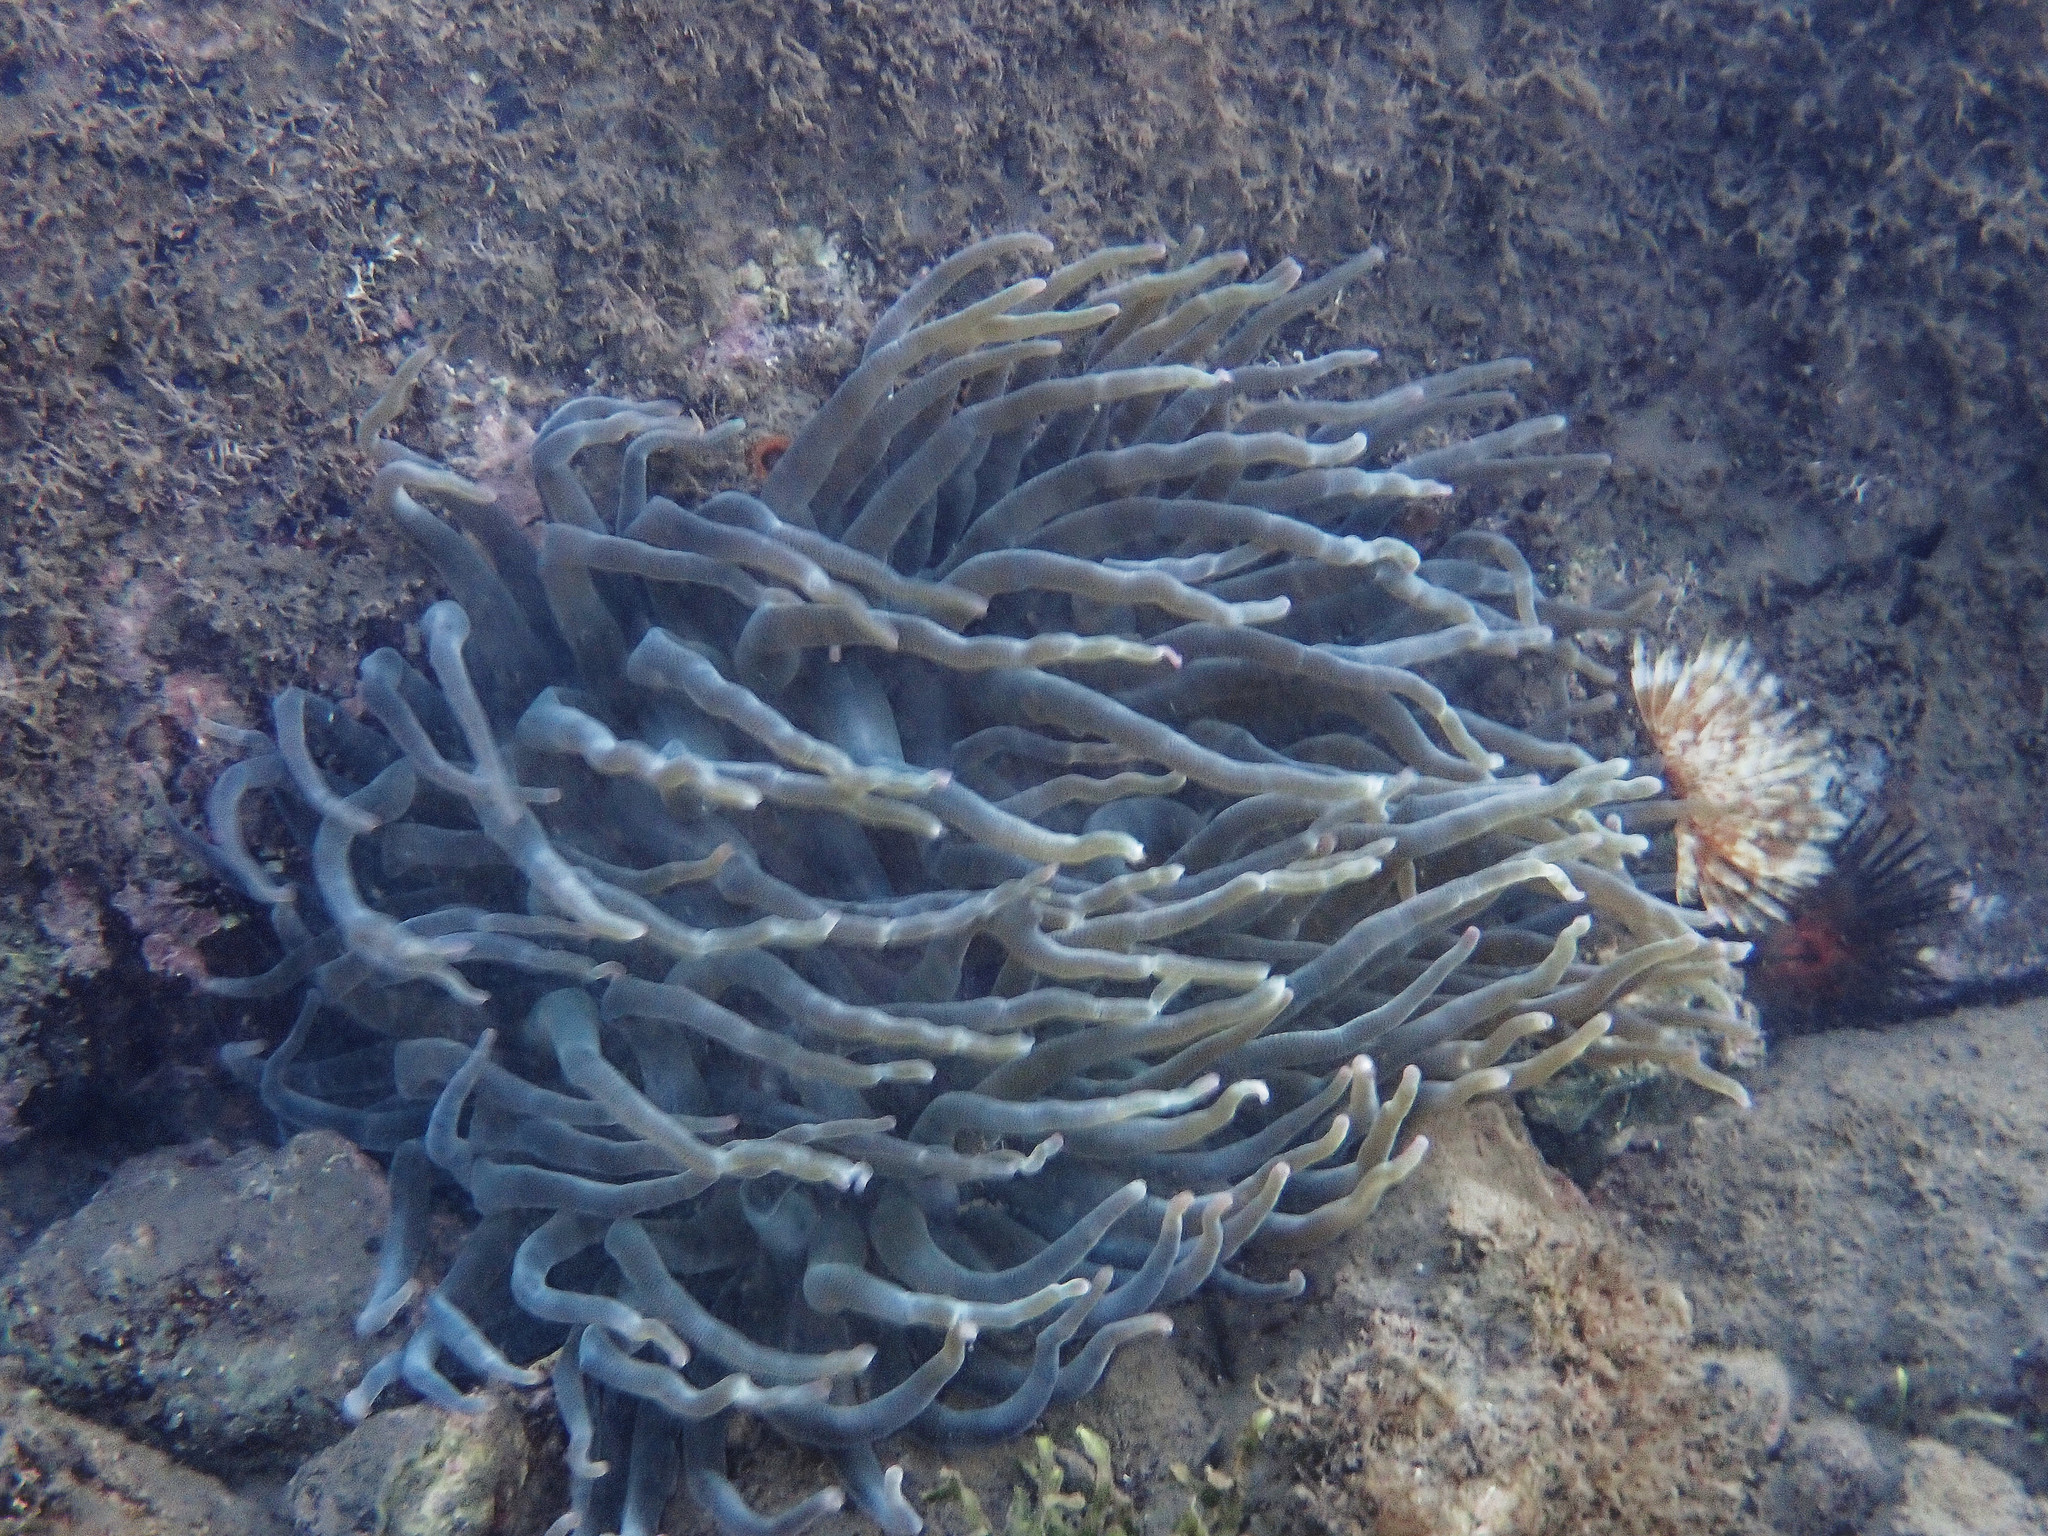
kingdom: Animalia
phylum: Cnidaria
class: Anthozoa
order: Actiniaria
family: Actiniidae
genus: Condylactis
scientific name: Condylactis gigantea
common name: Giant caribbean anemone
